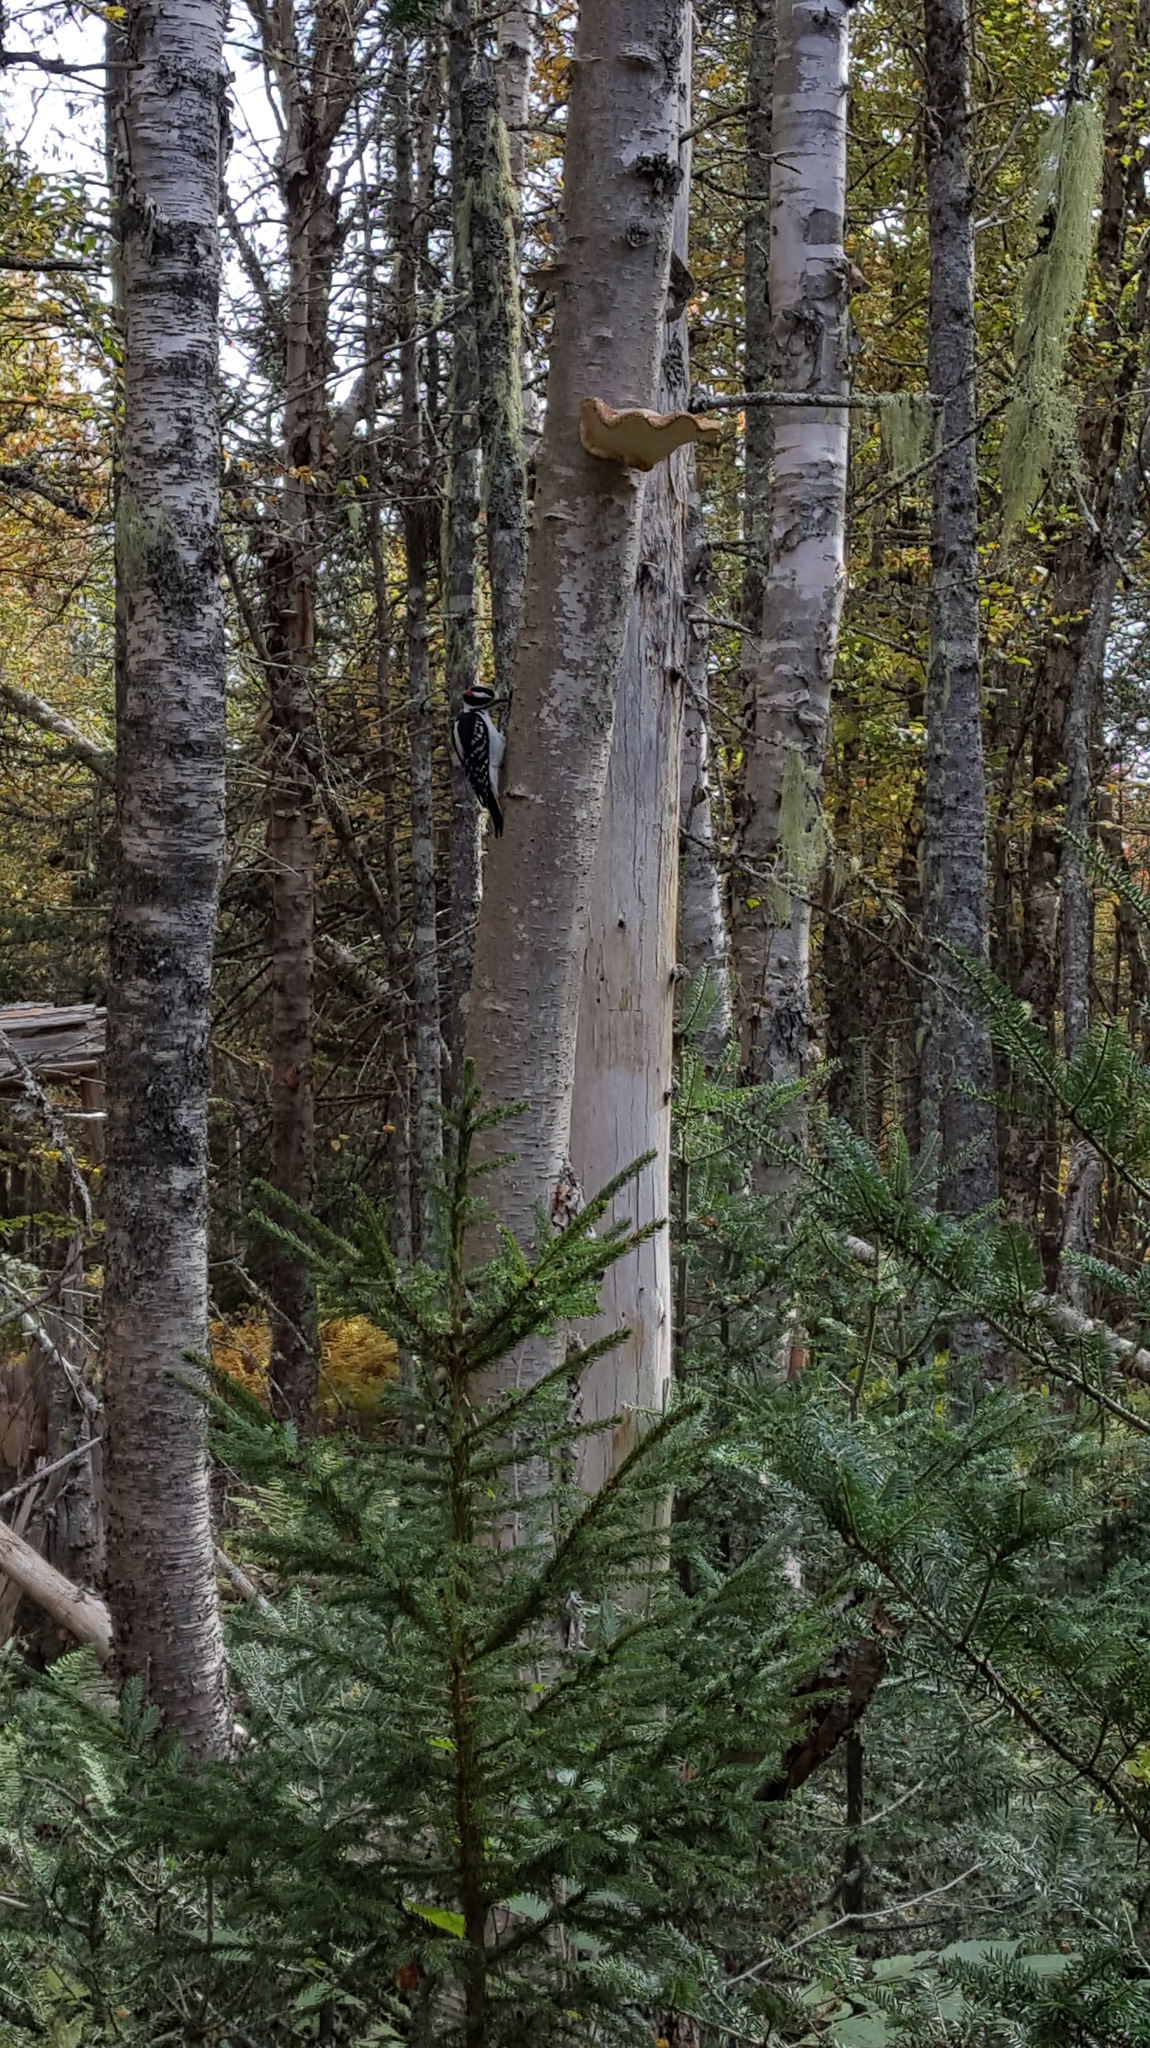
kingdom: Animalia
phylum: Chordata
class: Aves
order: Piciformes
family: Picidae
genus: Leuconotopicus
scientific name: Leuconotopicus villosus
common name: Hairy woodpecker
